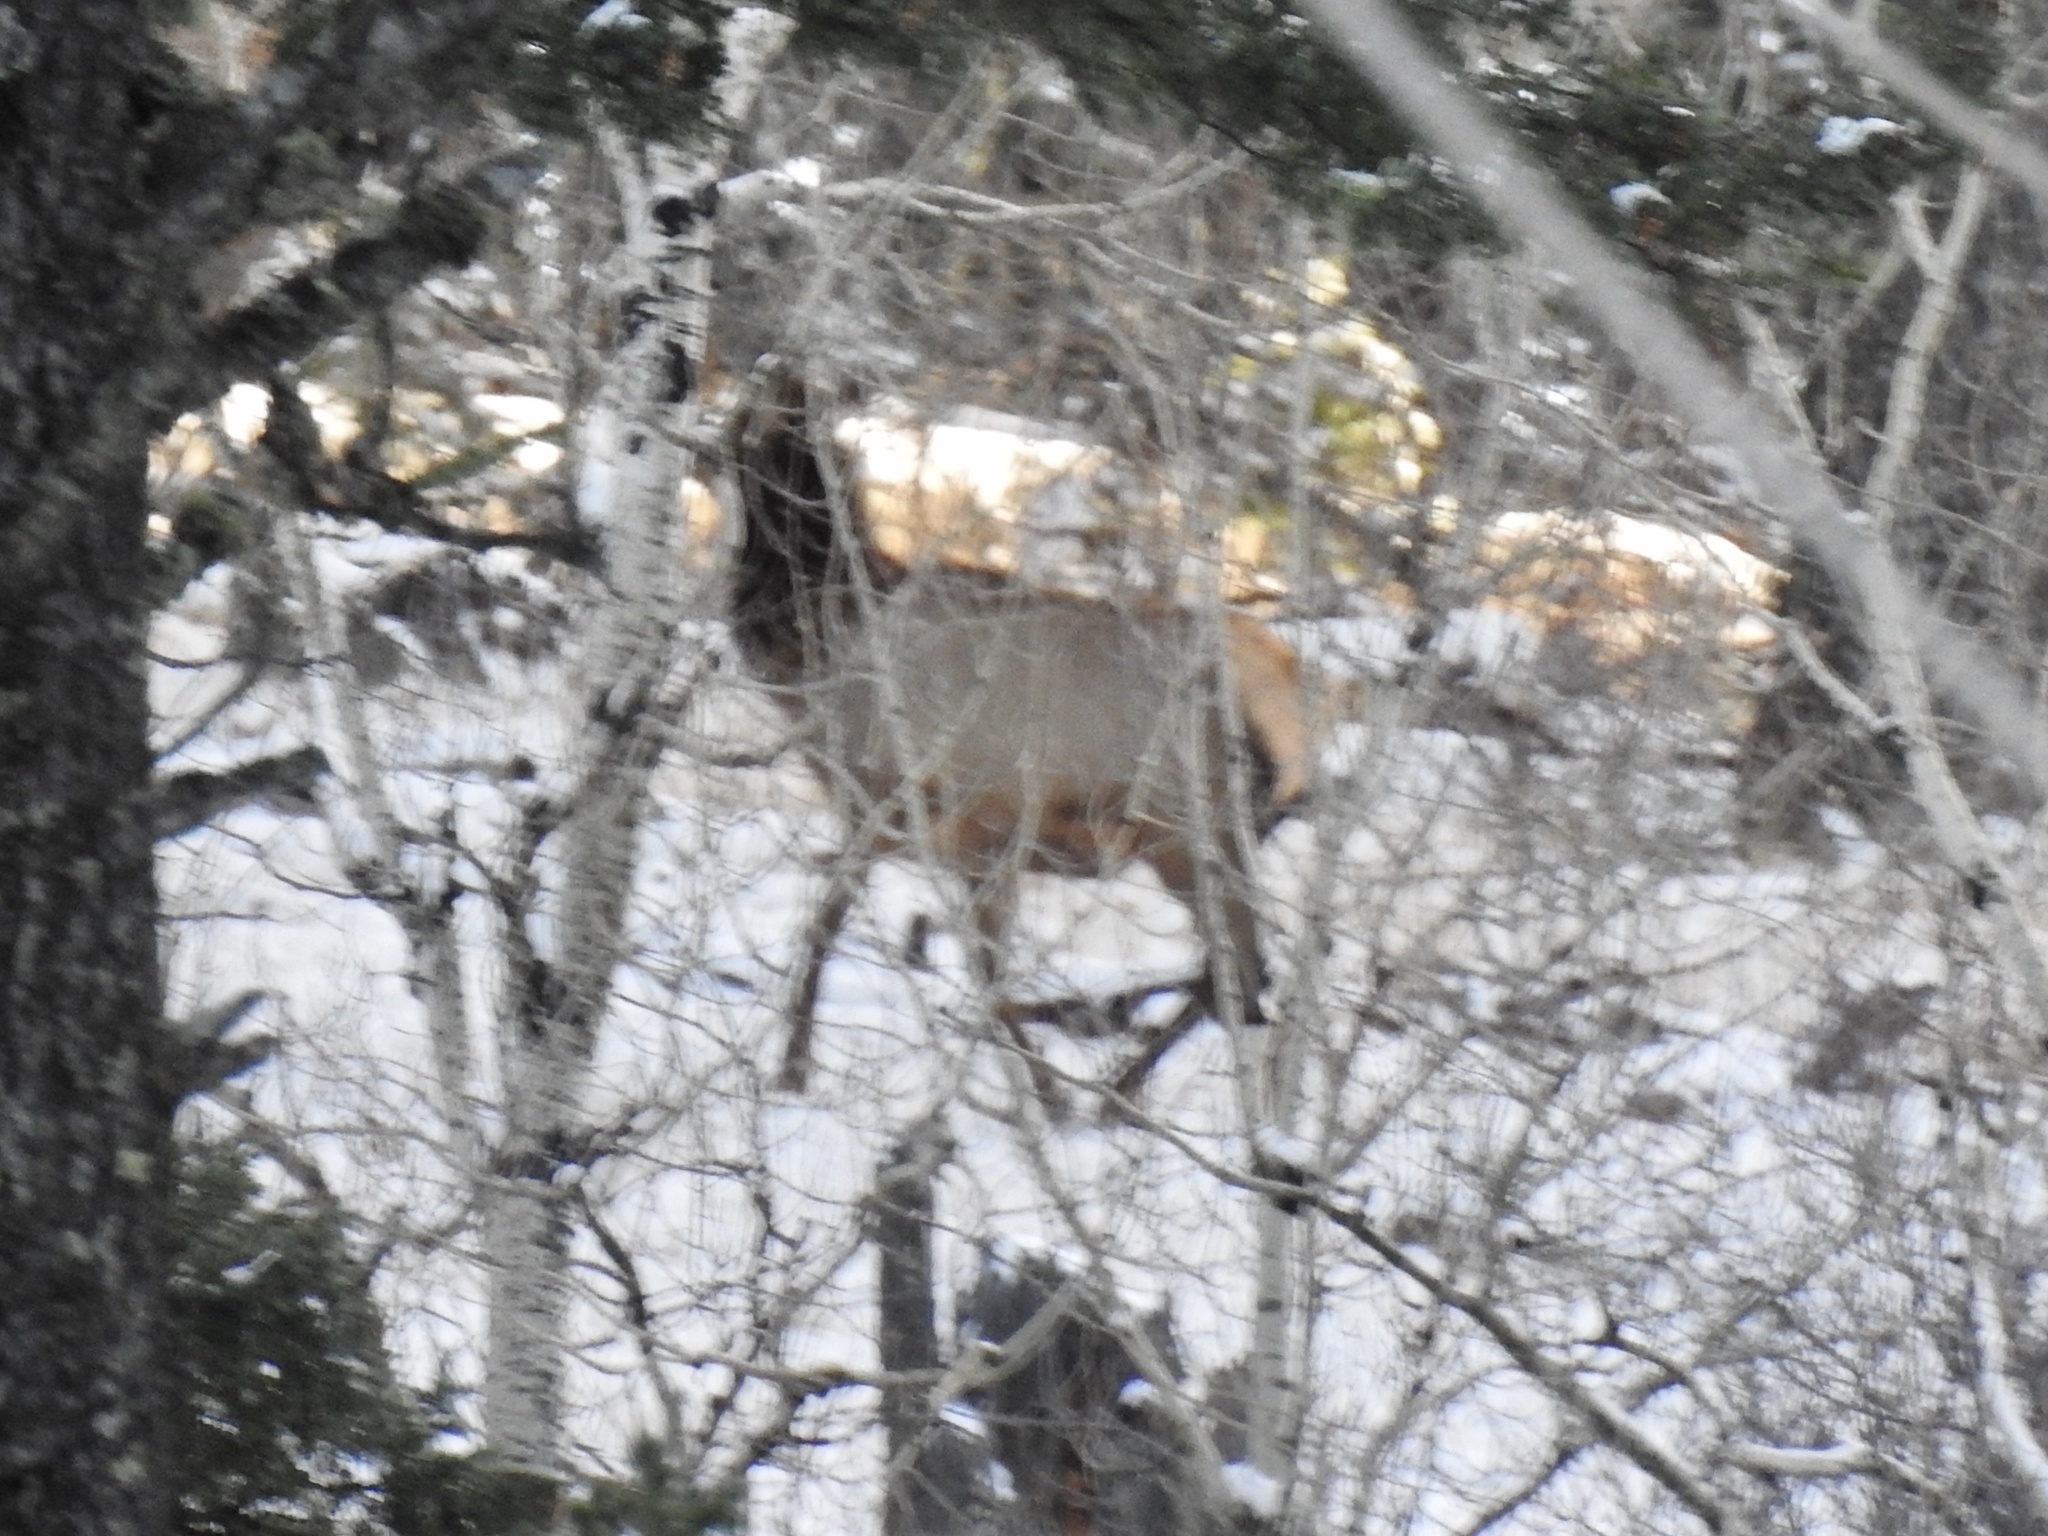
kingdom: Animalia
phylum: Chordata
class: Mammalia
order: Artiodactyla
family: Cervidae
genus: Cervus
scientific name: Cervus elaphus
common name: Red deer
